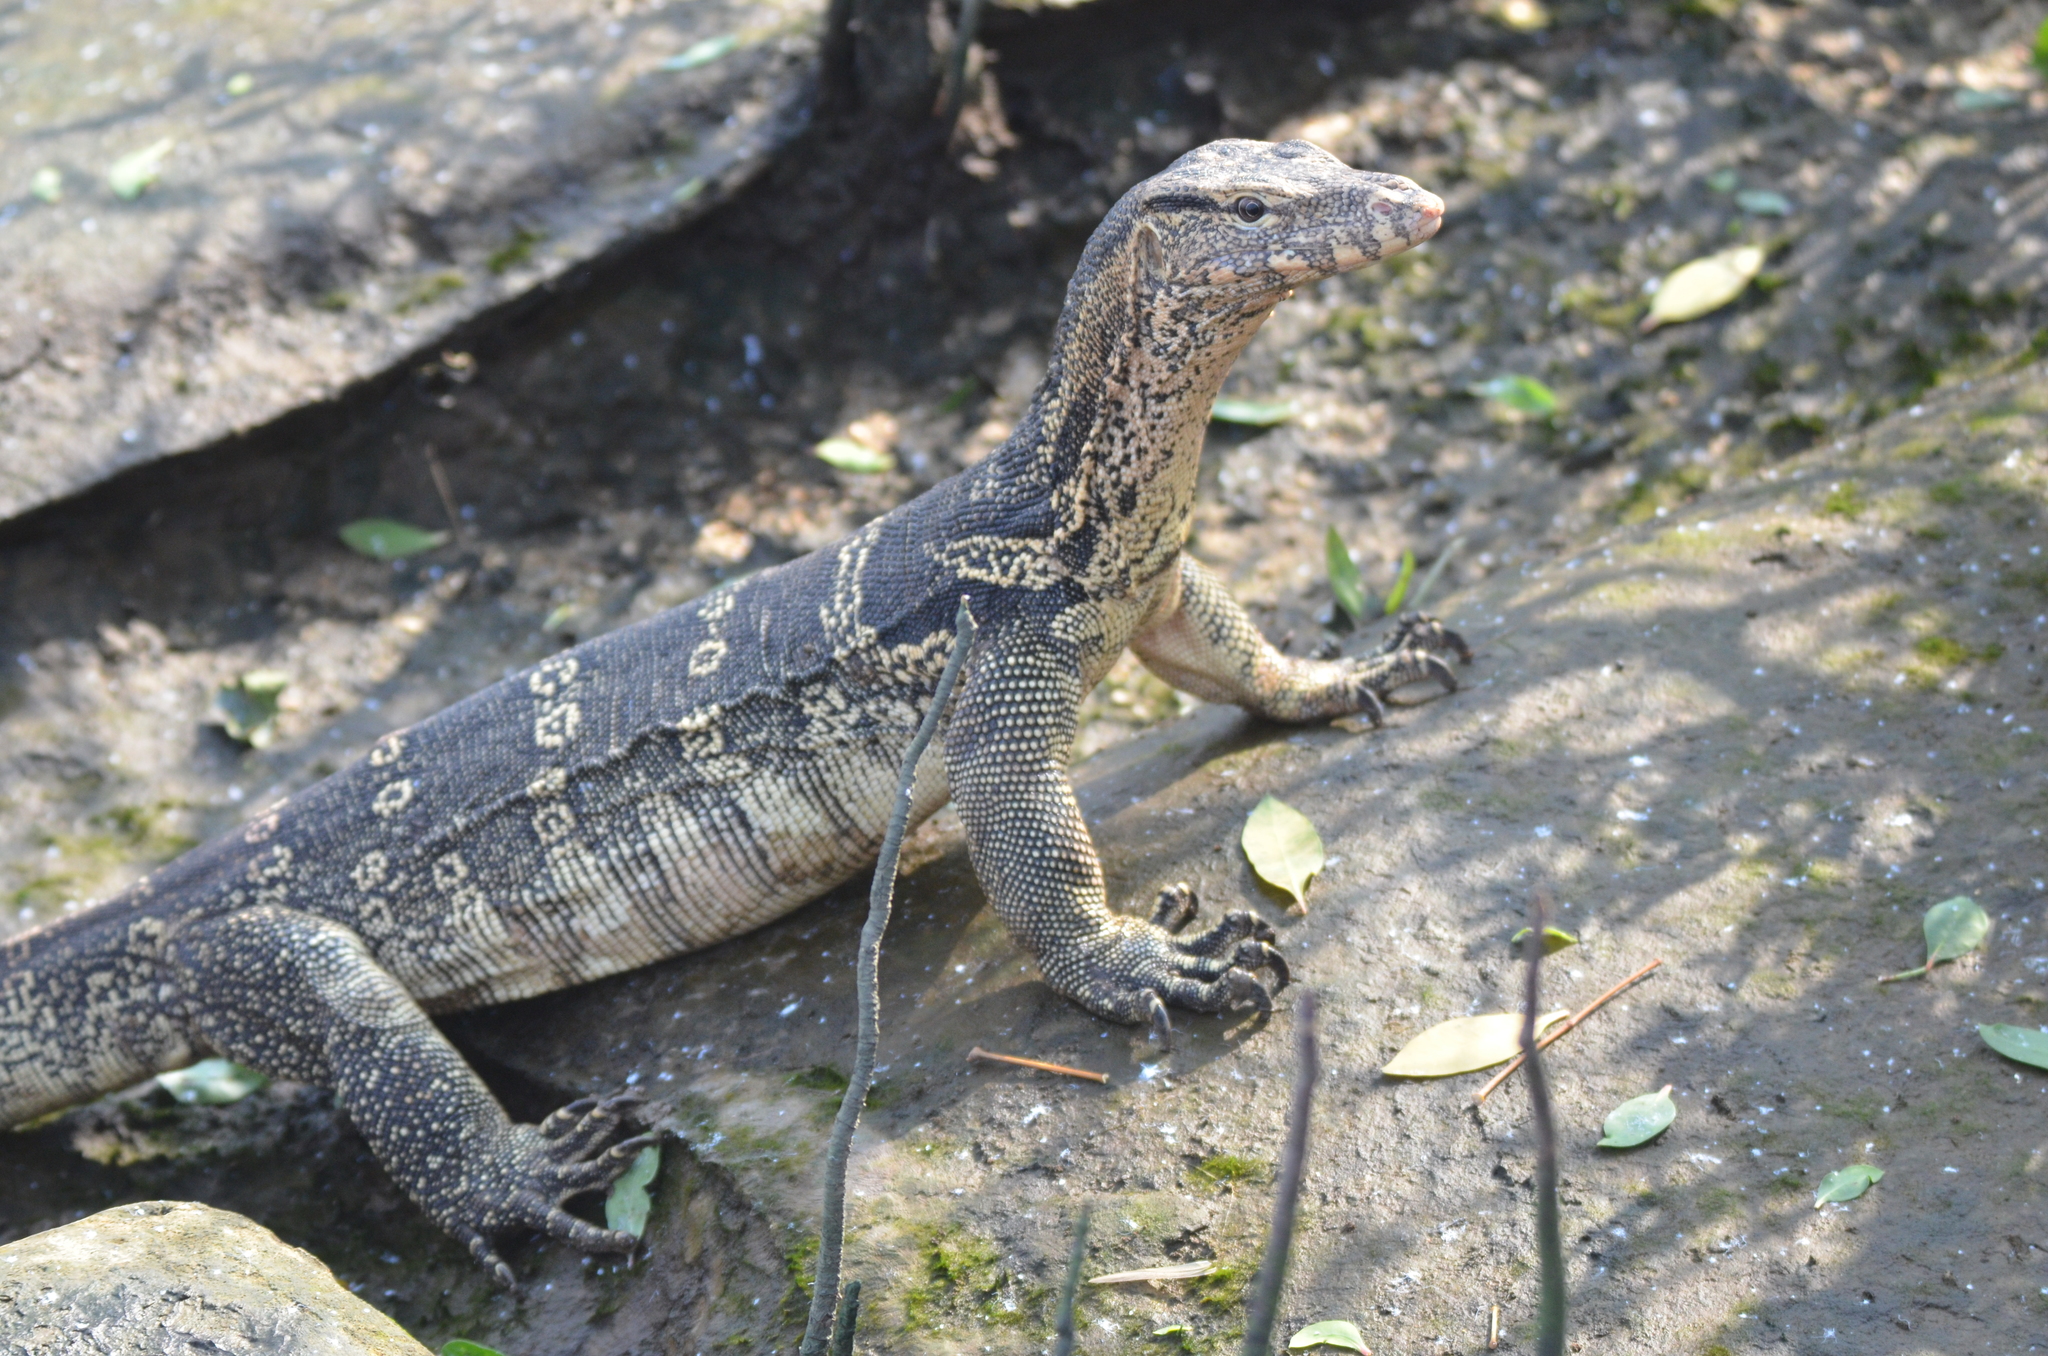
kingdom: Animalia
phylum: Chordata
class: Squamata
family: Varanidae
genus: Varanus
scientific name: Varanus salvator
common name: Common water monitor
